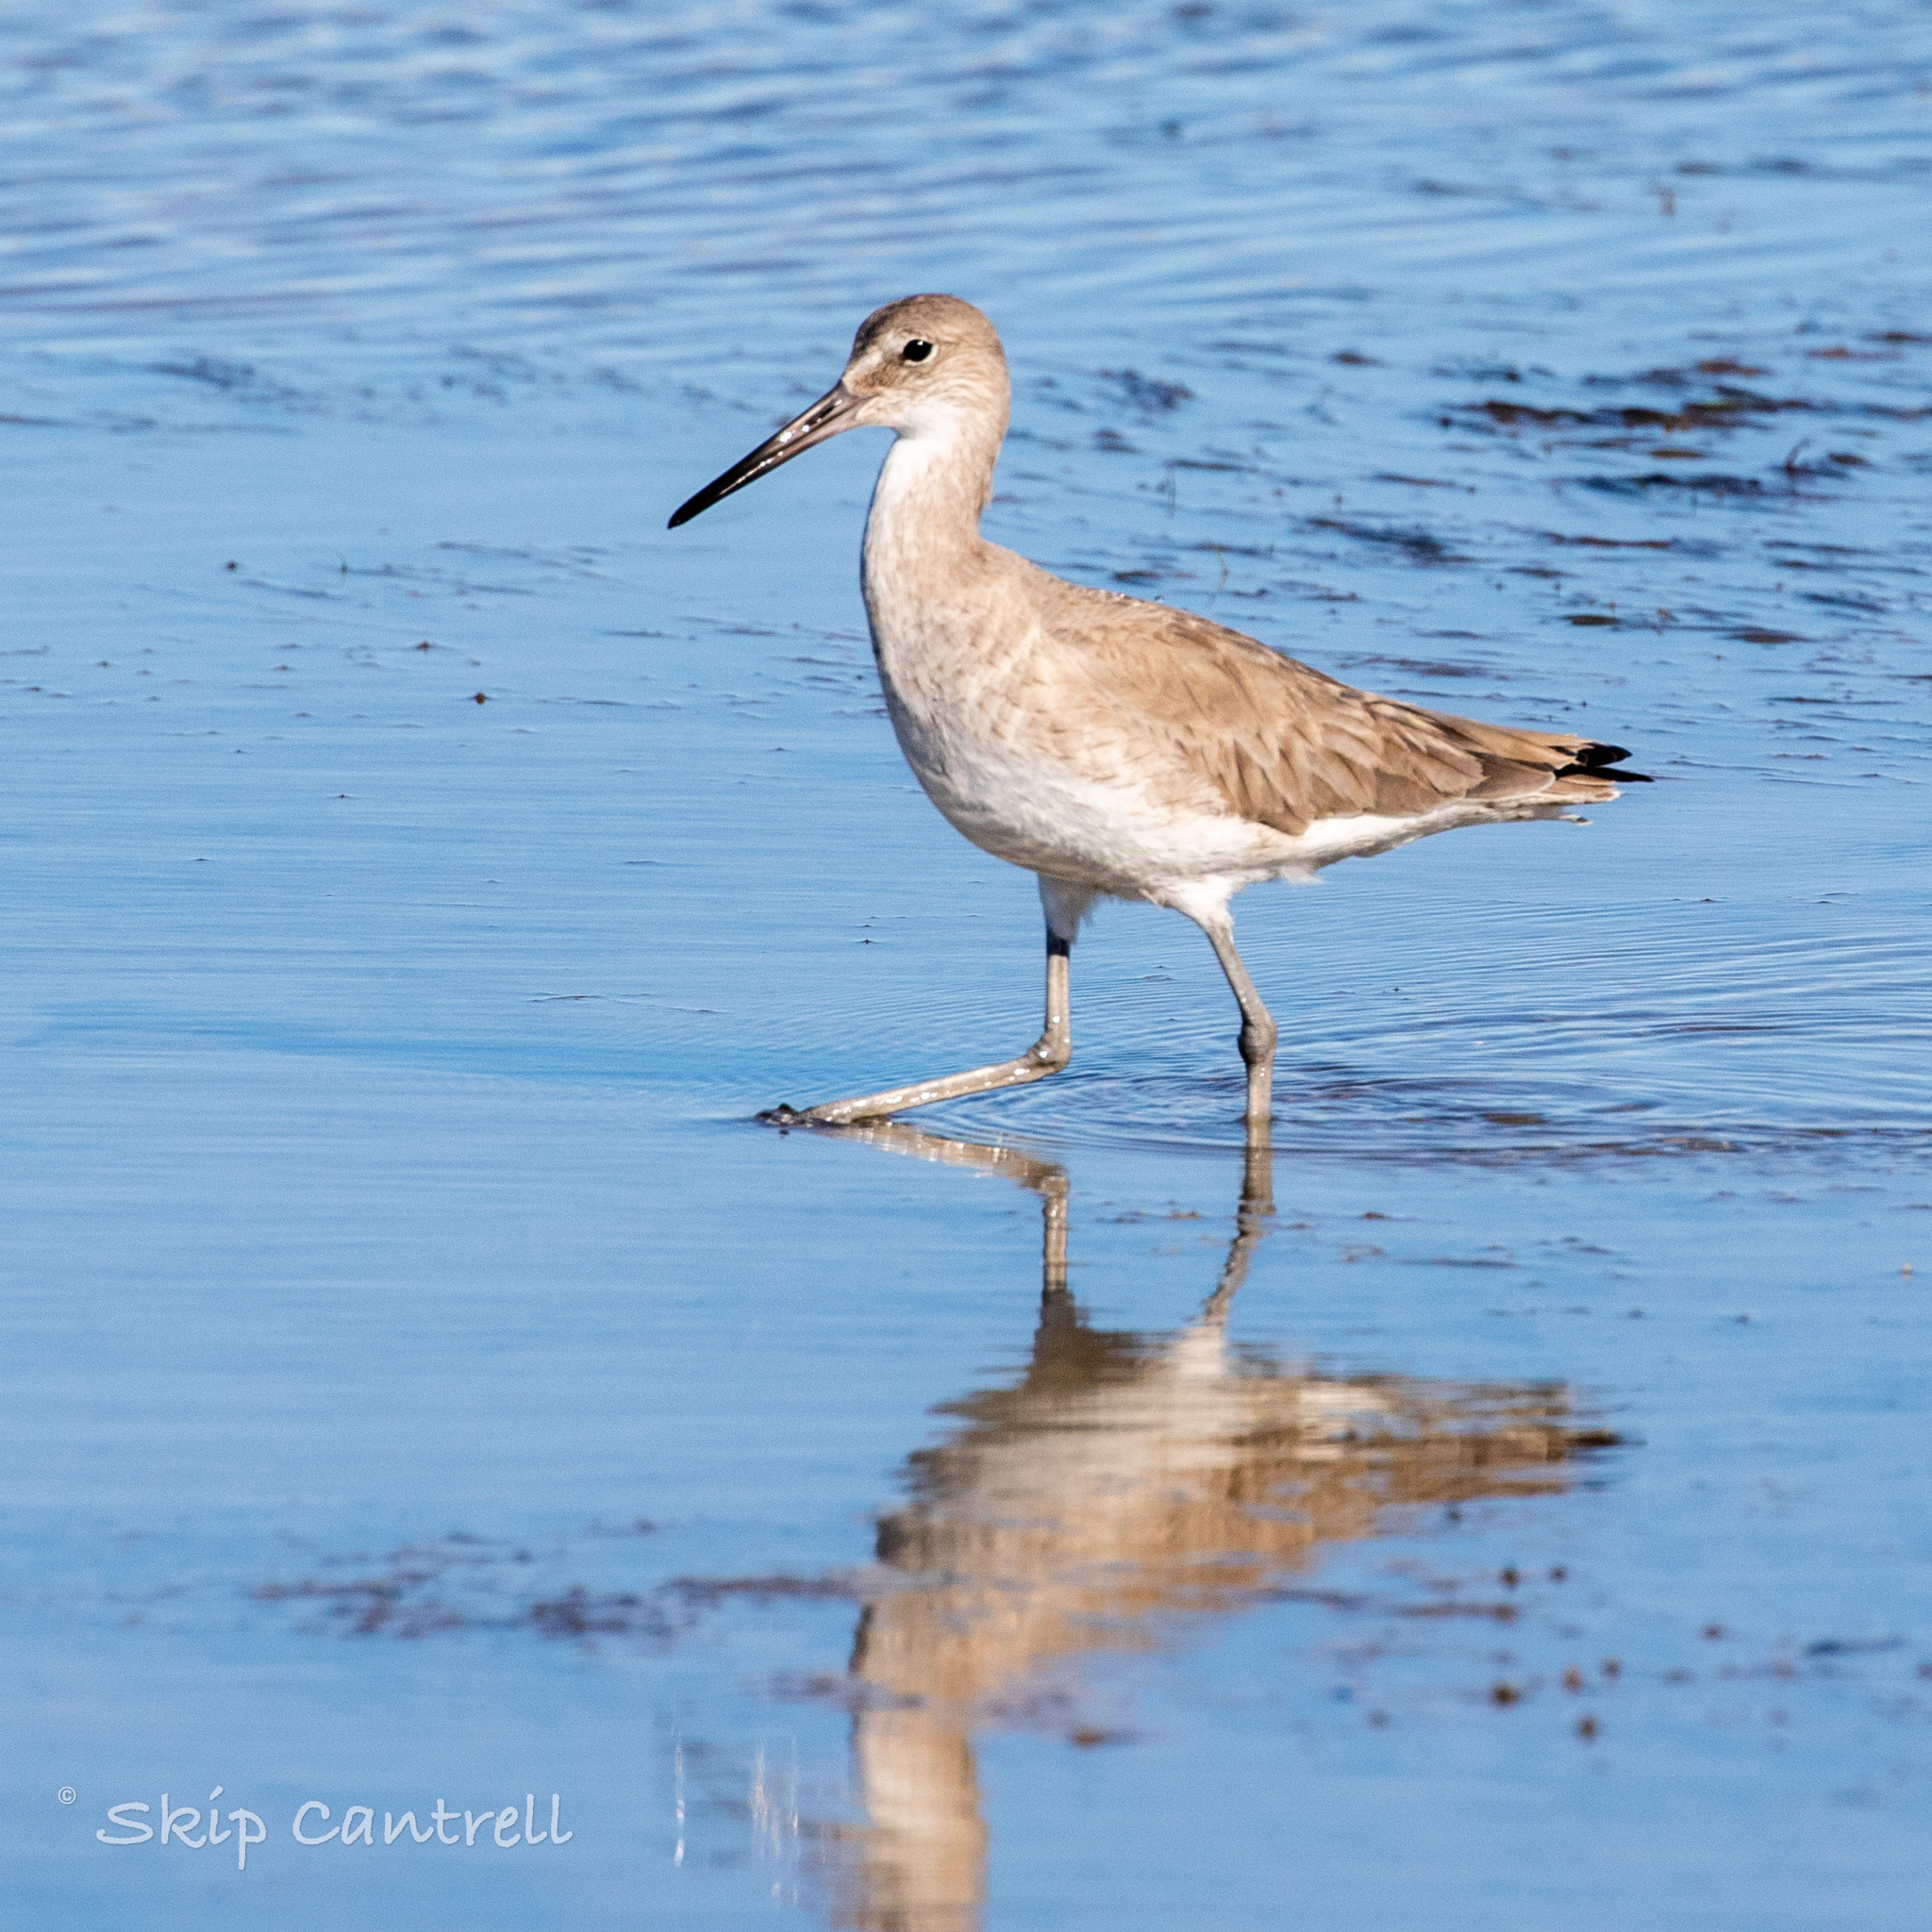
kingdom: Animalia
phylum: Chordata
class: Aves
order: Charadriiformes
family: Scolopacidae
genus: Tringa
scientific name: Tringa semipalmata
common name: Willet
